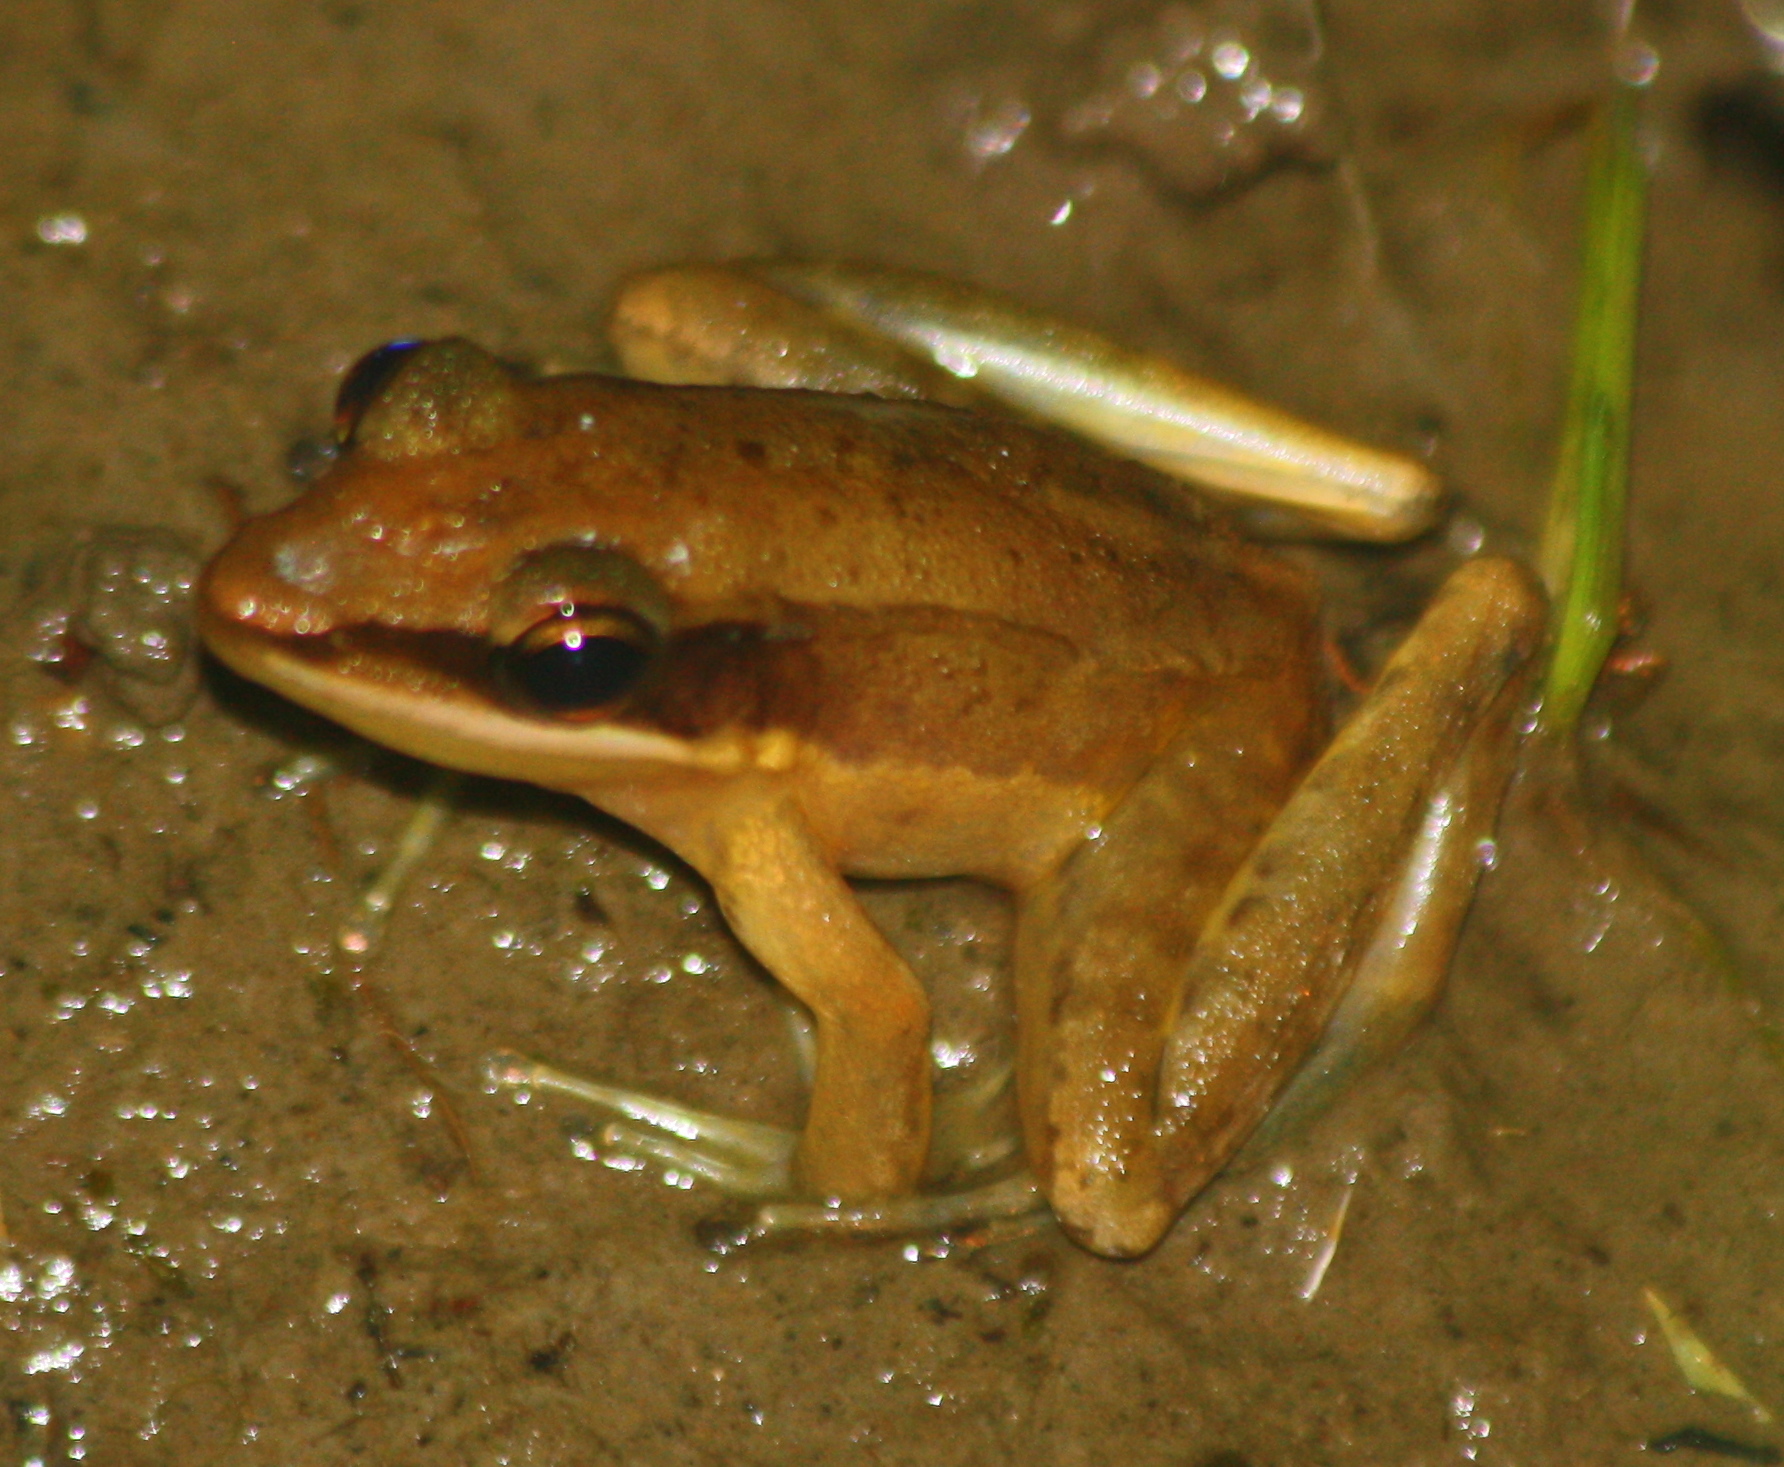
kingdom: Animalia
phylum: Chordata
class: Amphibia
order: Anura
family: Ranidae
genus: Bijurana
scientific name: Bijurana nicobariensis
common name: Cricket frog
